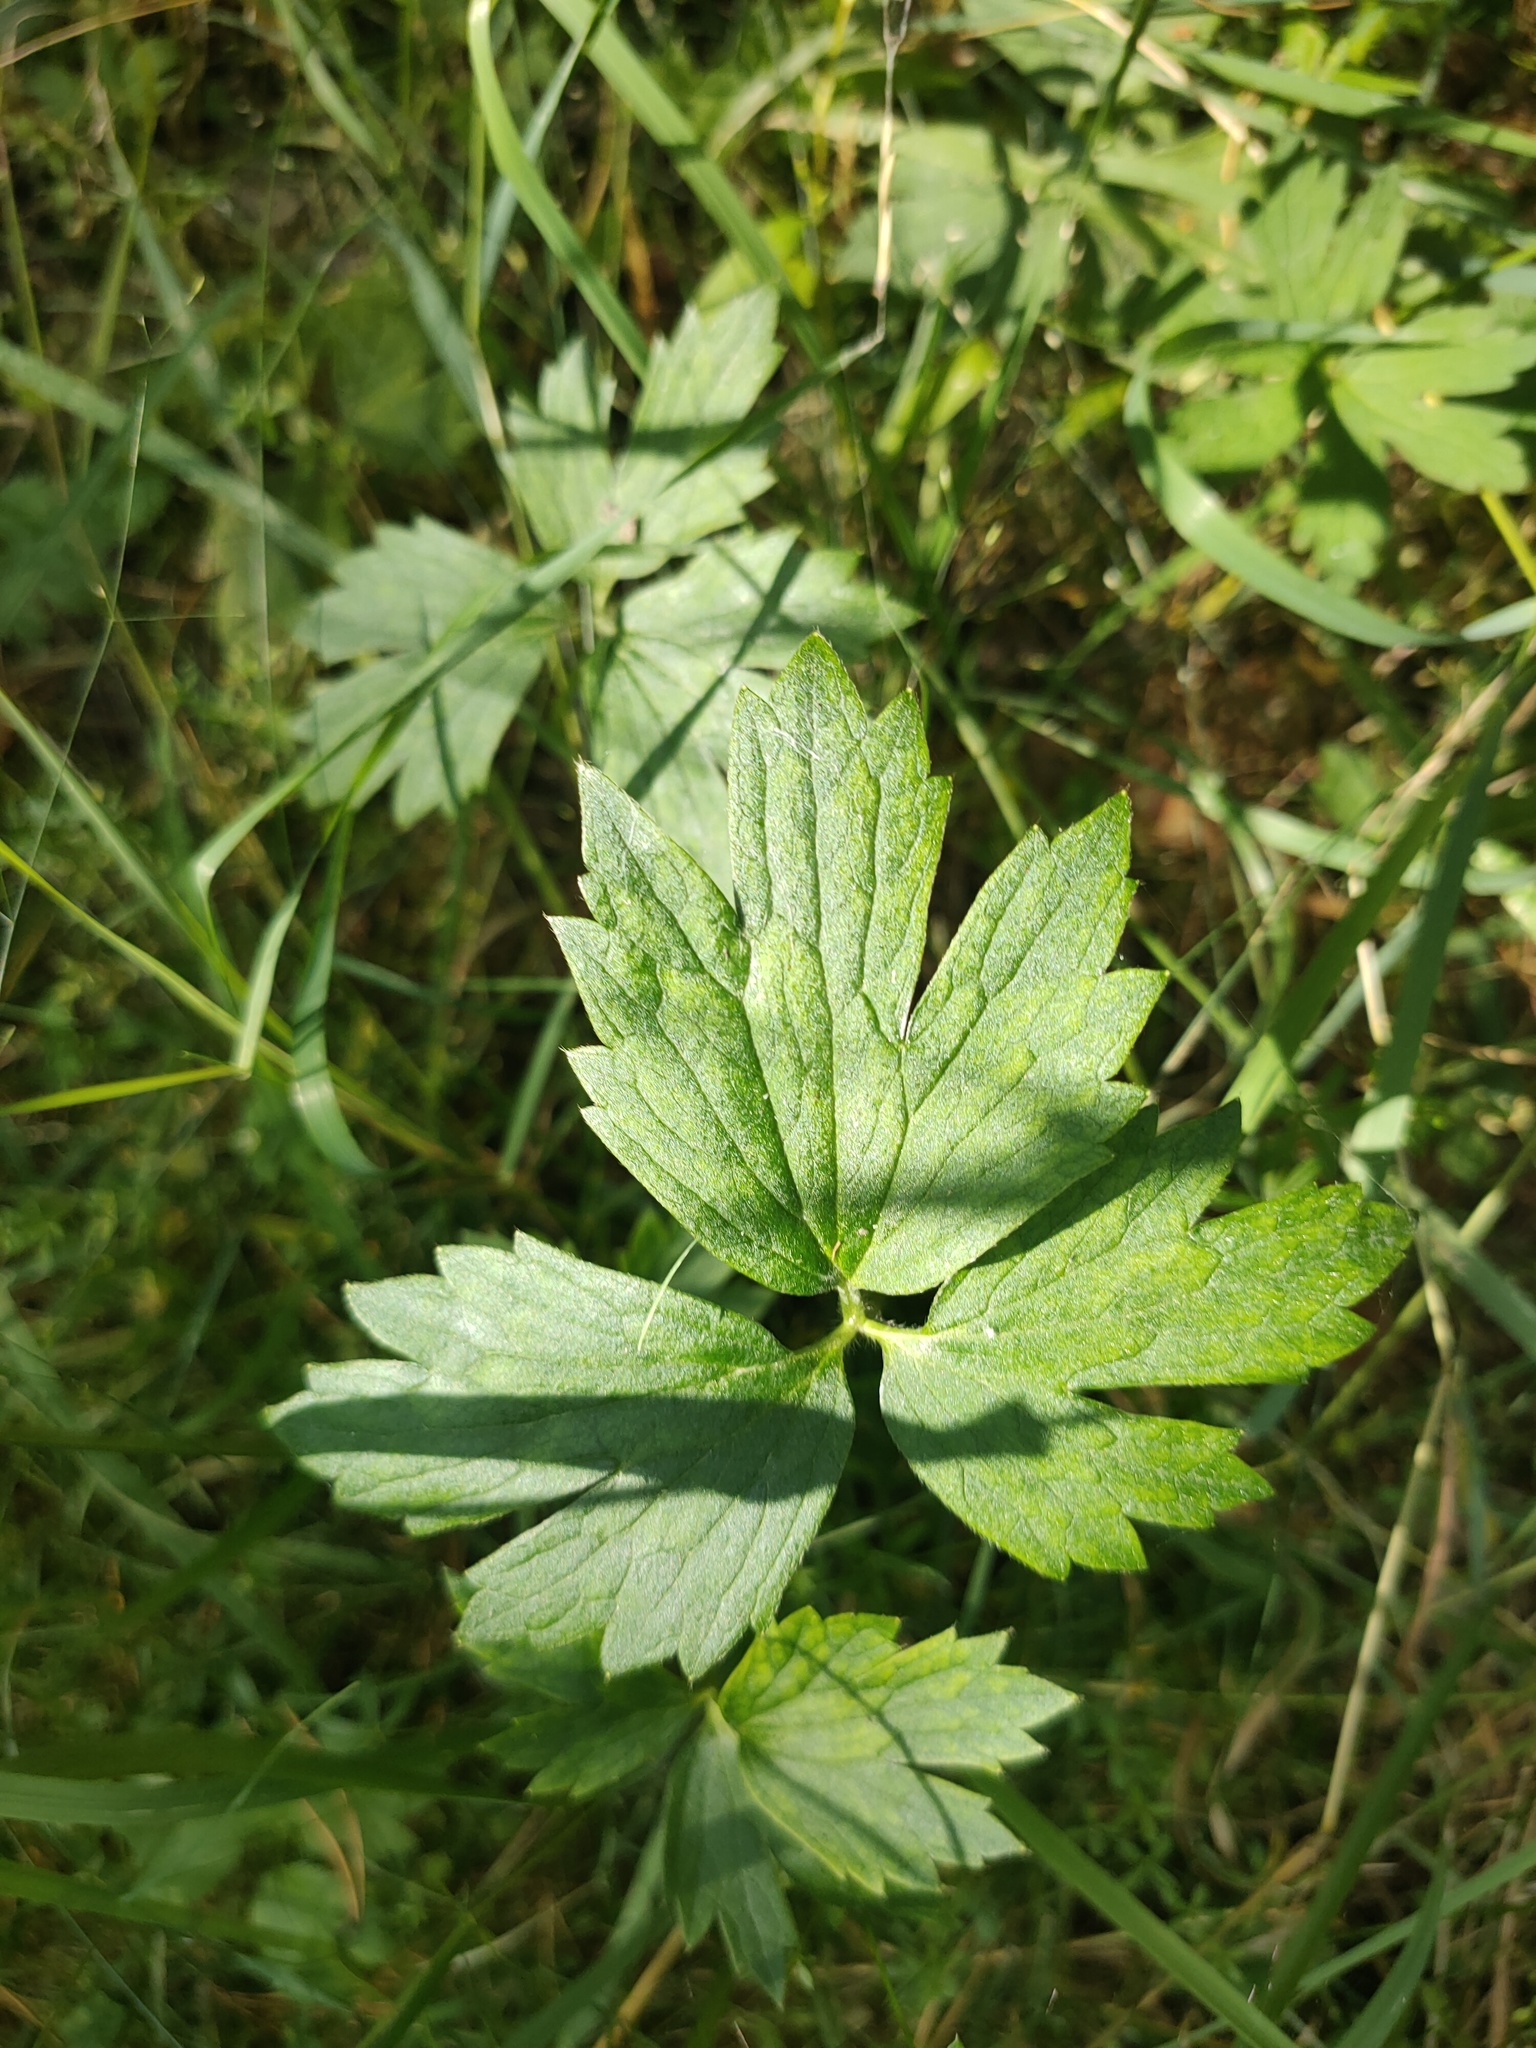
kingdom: Plantae
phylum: Tracheophyta
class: Magnoliopsida
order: Ranunculales
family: Ranunculaceae
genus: Ranunculus
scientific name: Ranunculus repens
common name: Creeping buttercup
